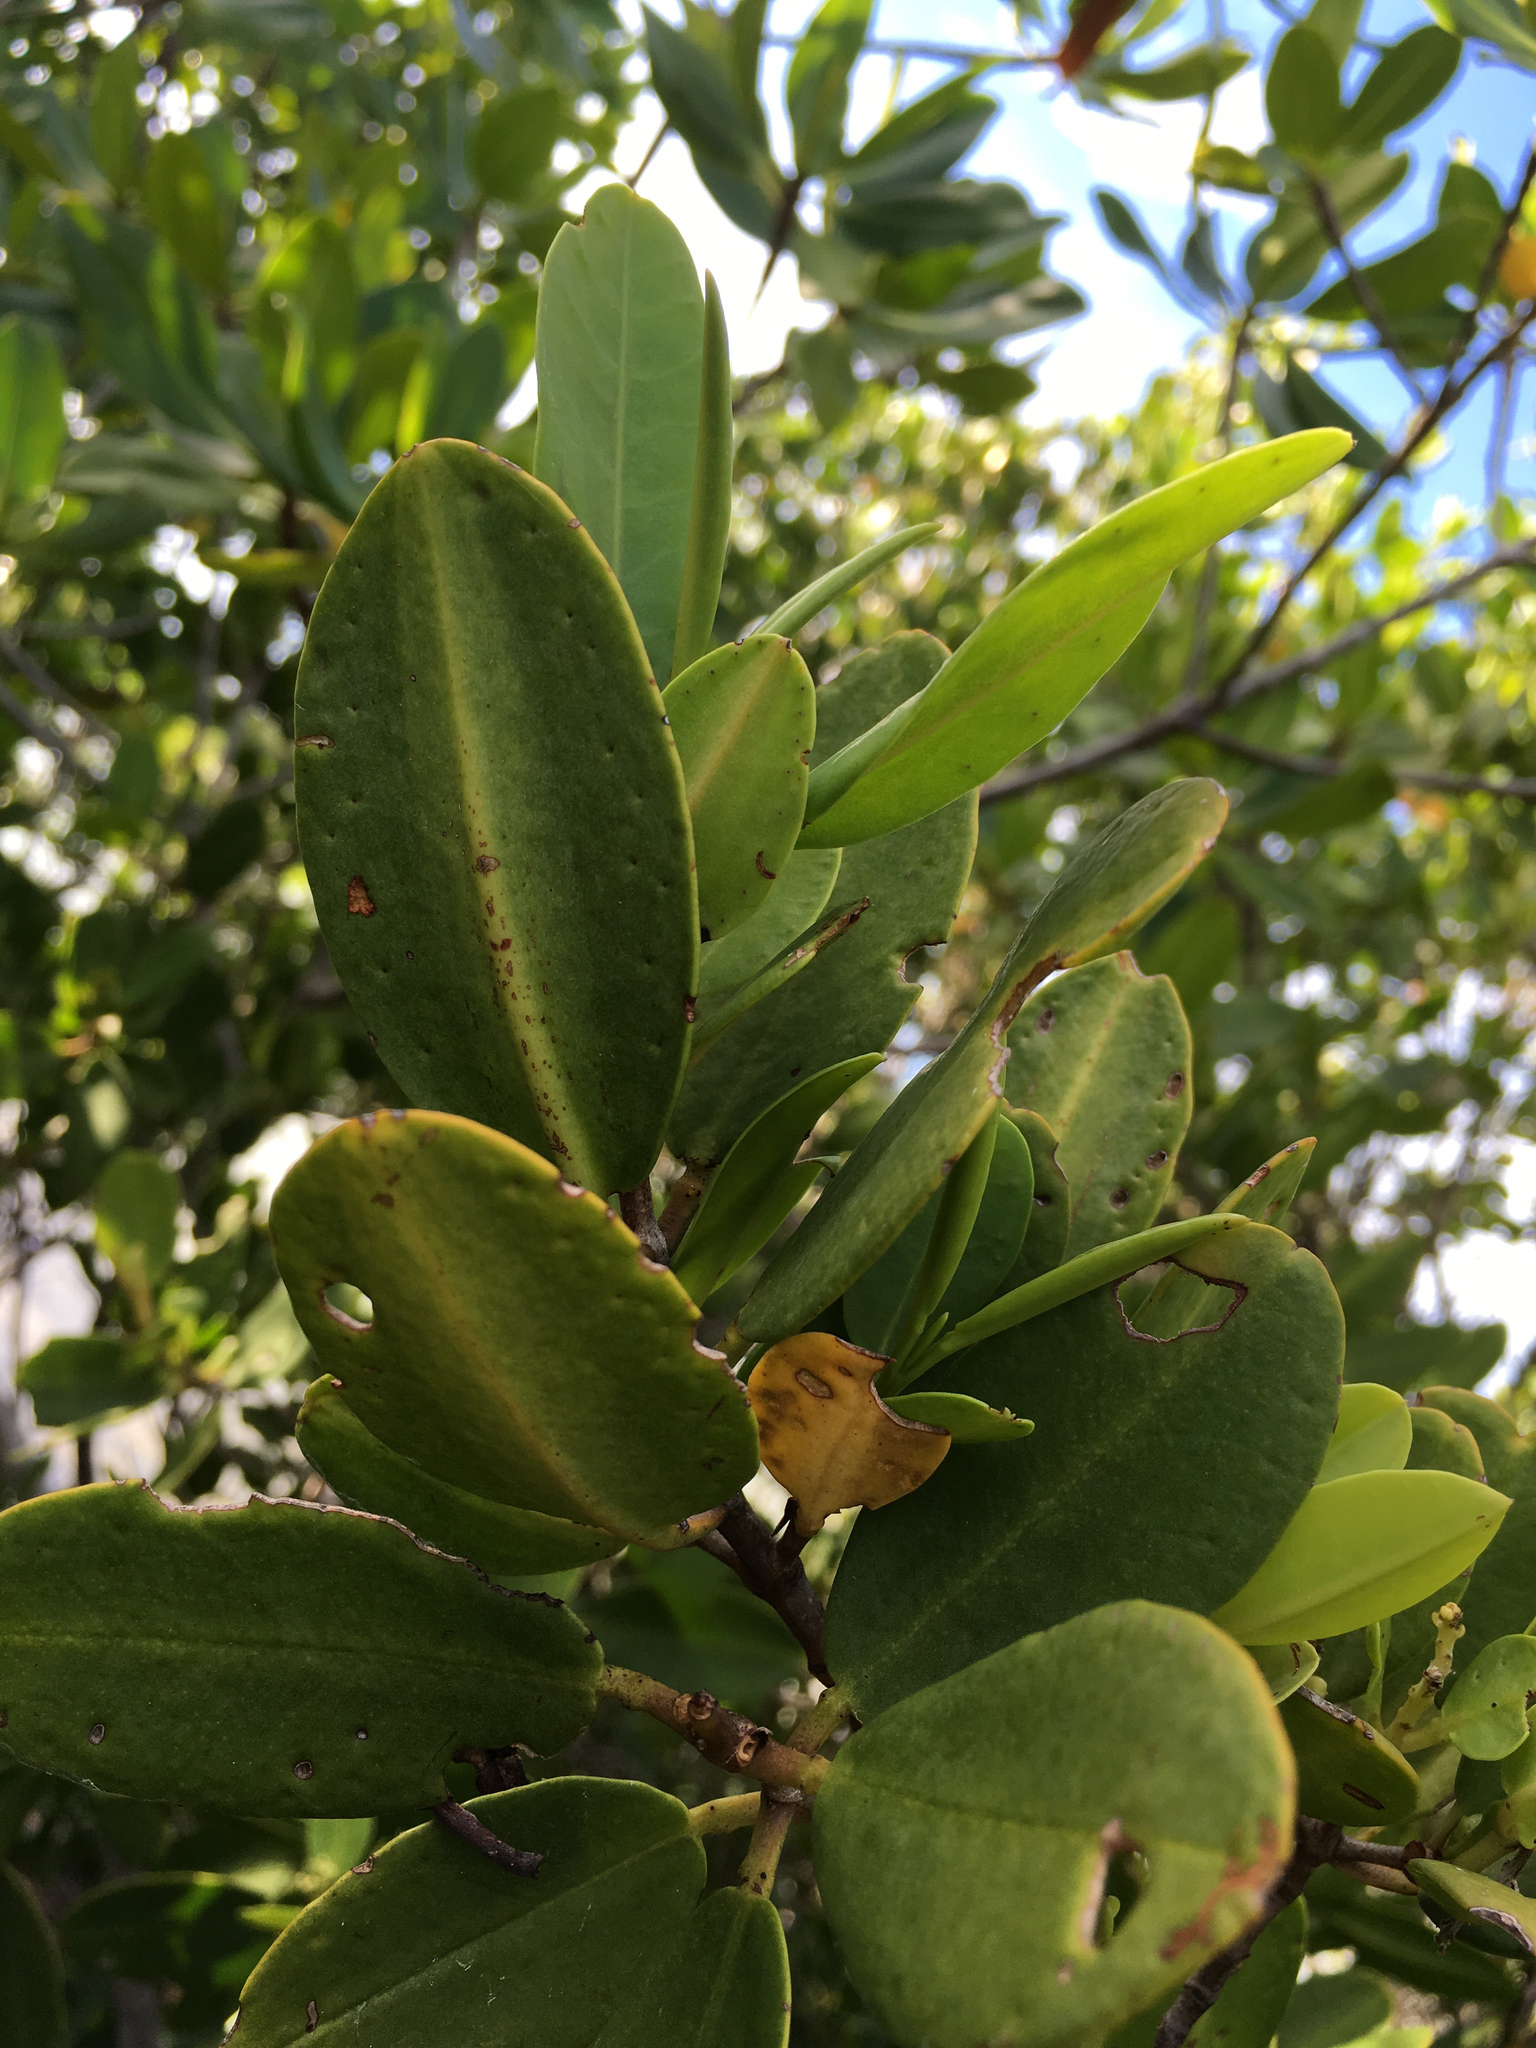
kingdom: Plantae
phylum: Tracheophyta
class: Magnoliopsida
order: Myrtales
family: Combretaceae
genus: Laguncularia
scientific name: Laguncularia racemosa
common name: White mangrove
